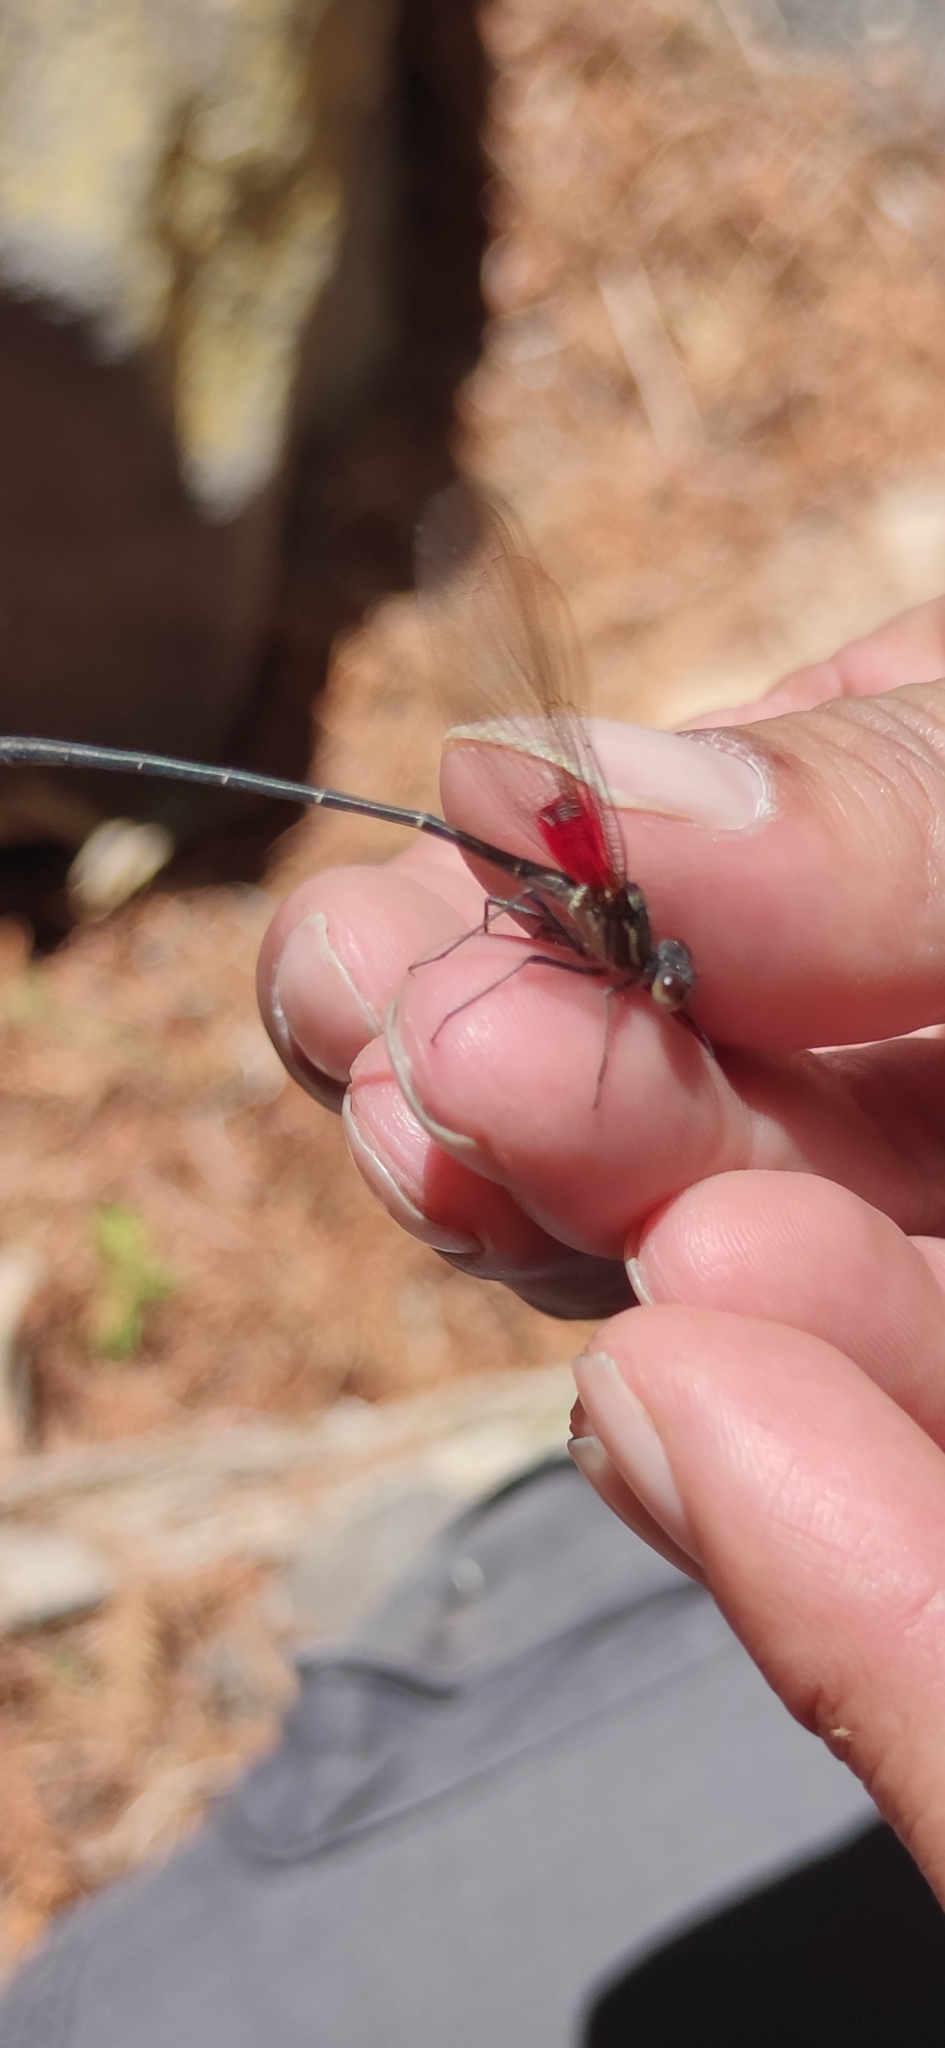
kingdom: Animalia
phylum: Arthropoda
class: Insecta
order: Odonata
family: Calopterygidae
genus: Hetaerina
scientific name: Hetaerina titia
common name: Smoky rubyspot
